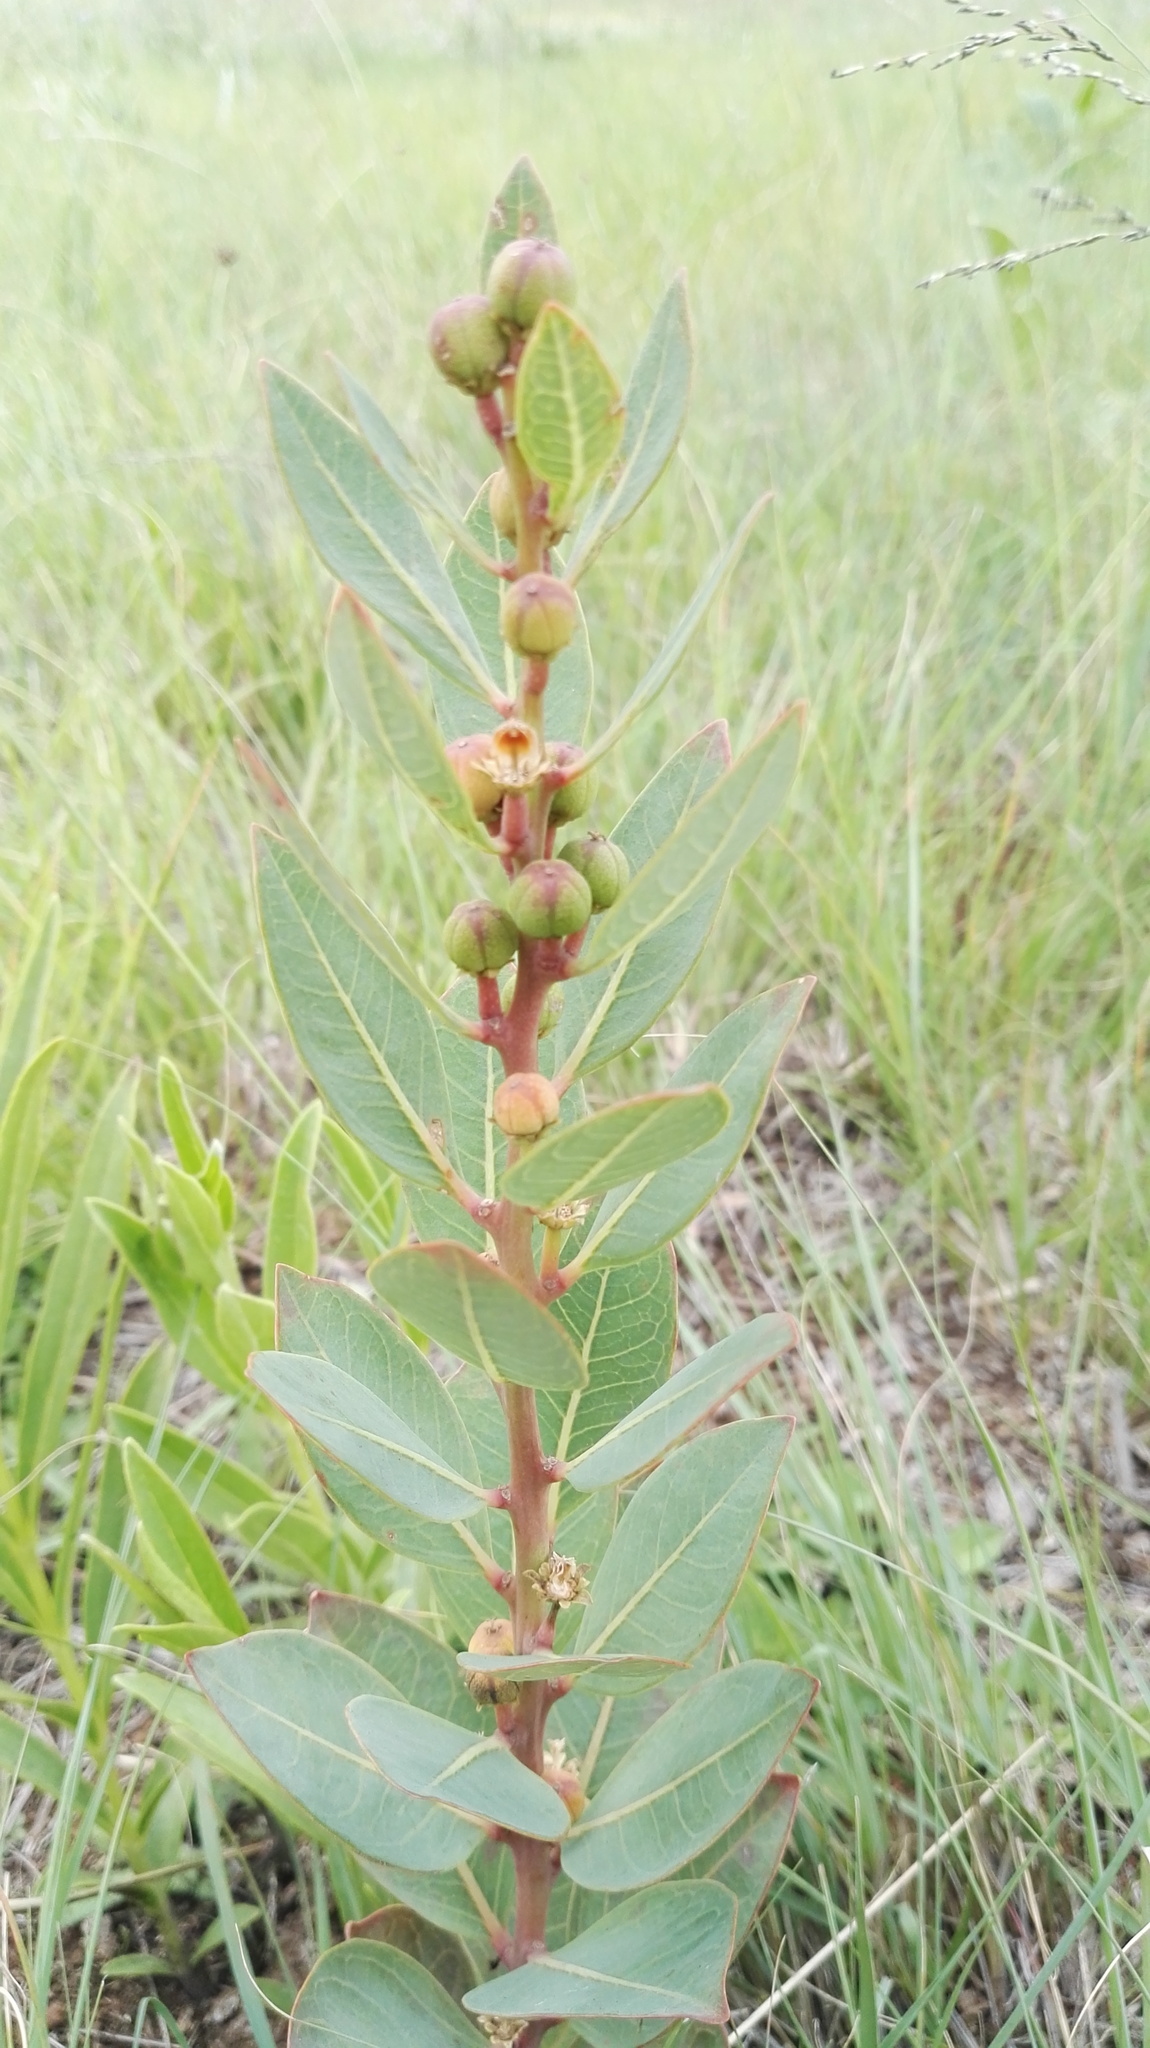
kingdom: Plantae
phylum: Tracheophyta
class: Magnoliopsida
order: Malpighiales
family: Peraceae
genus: Clutia
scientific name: Clutia cordata
